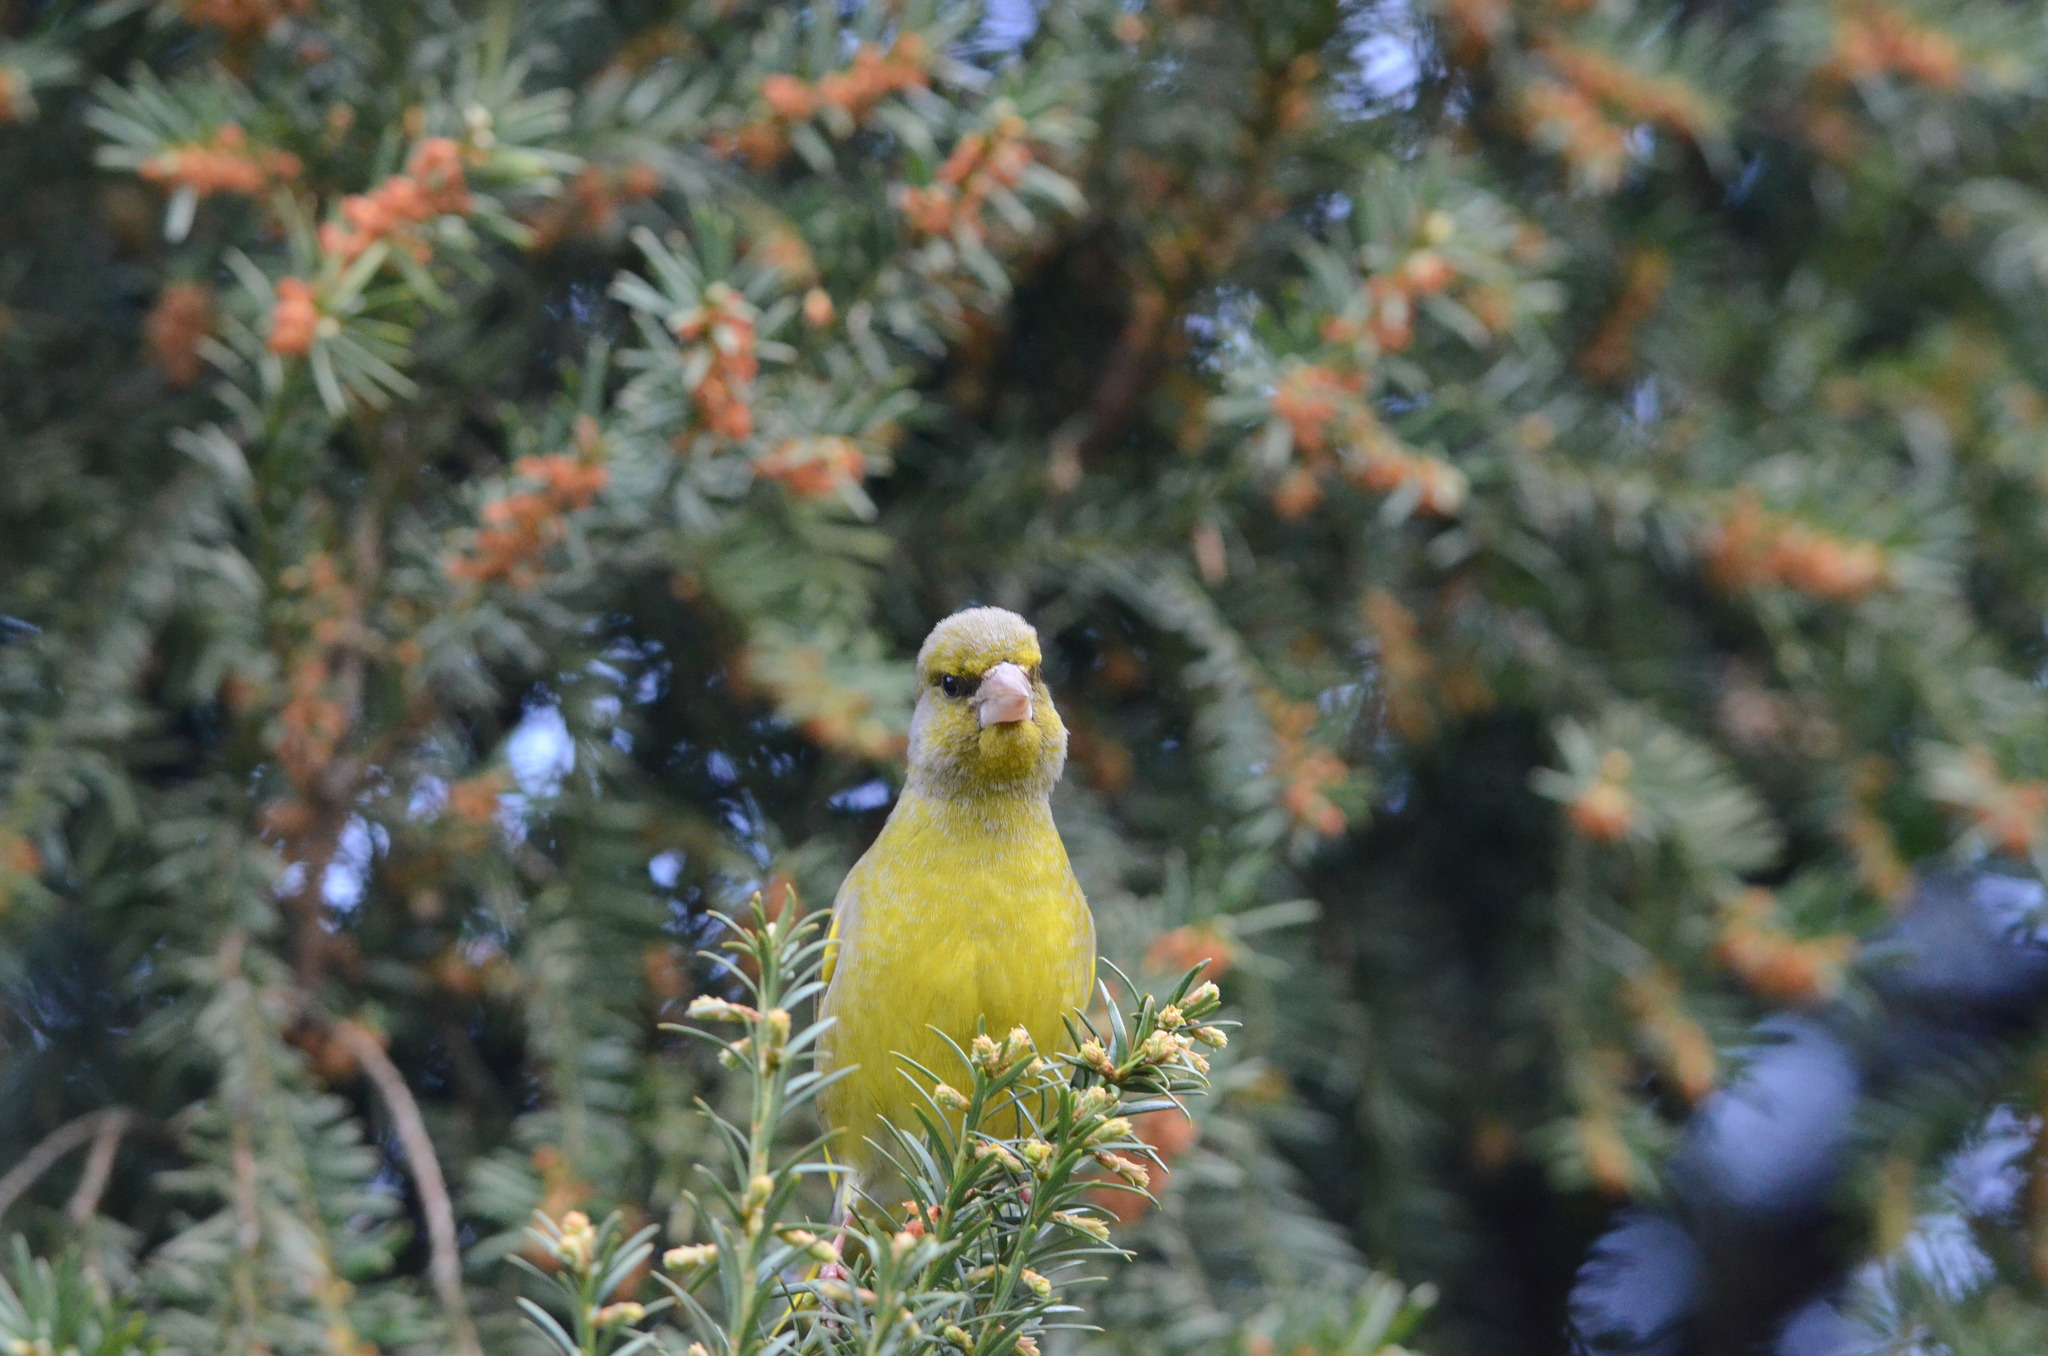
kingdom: Plantae
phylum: Tracheophyta
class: Liliopsida
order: Poales
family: Poaceae
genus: Chloris
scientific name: Chloris chloris
